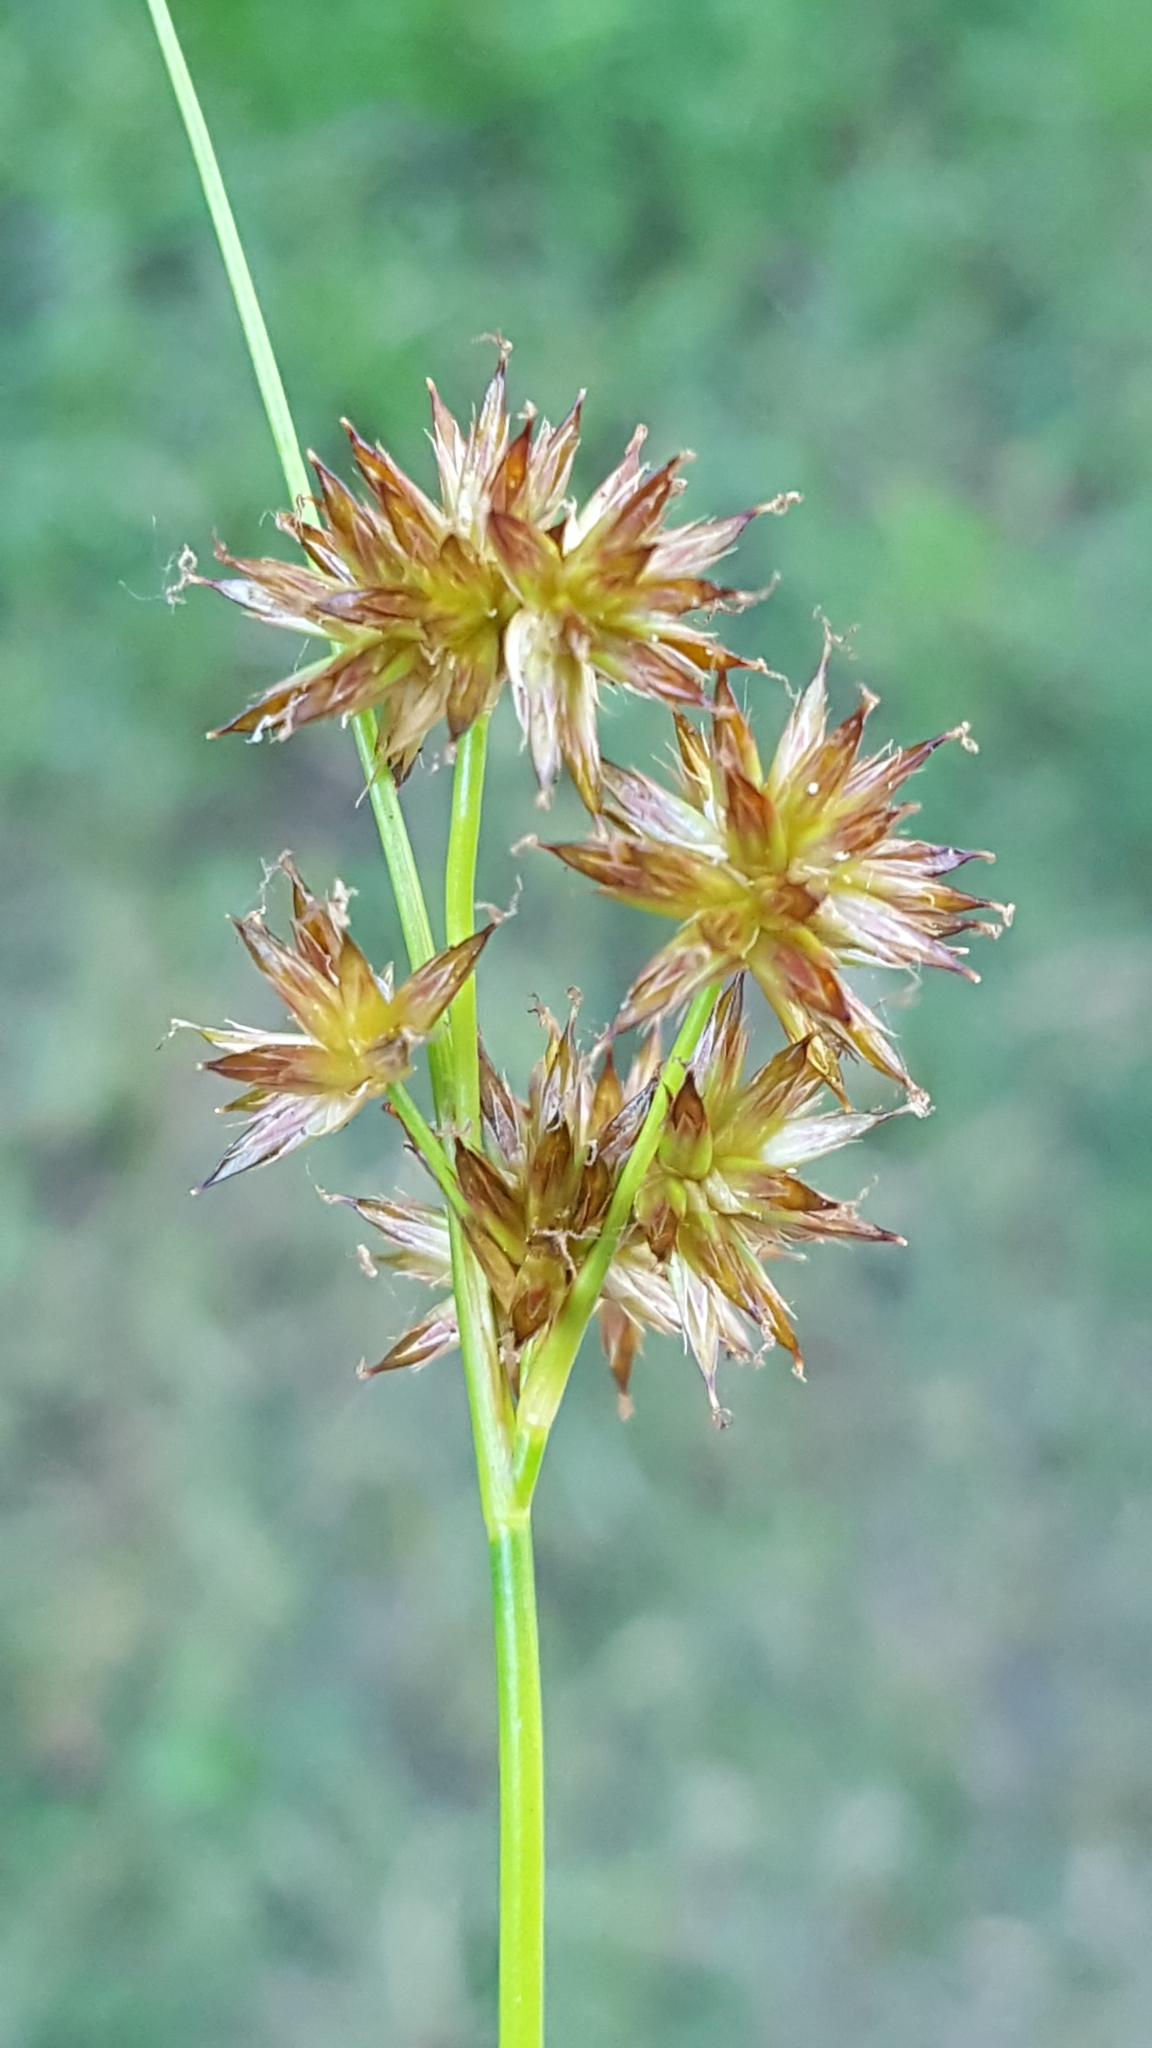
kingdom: Plantae
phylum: Tracheophyta
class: Liliopsida
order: Poales
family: Juncaceae
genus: Juncus
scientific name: Juncus nodosus
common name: Knotted rush
